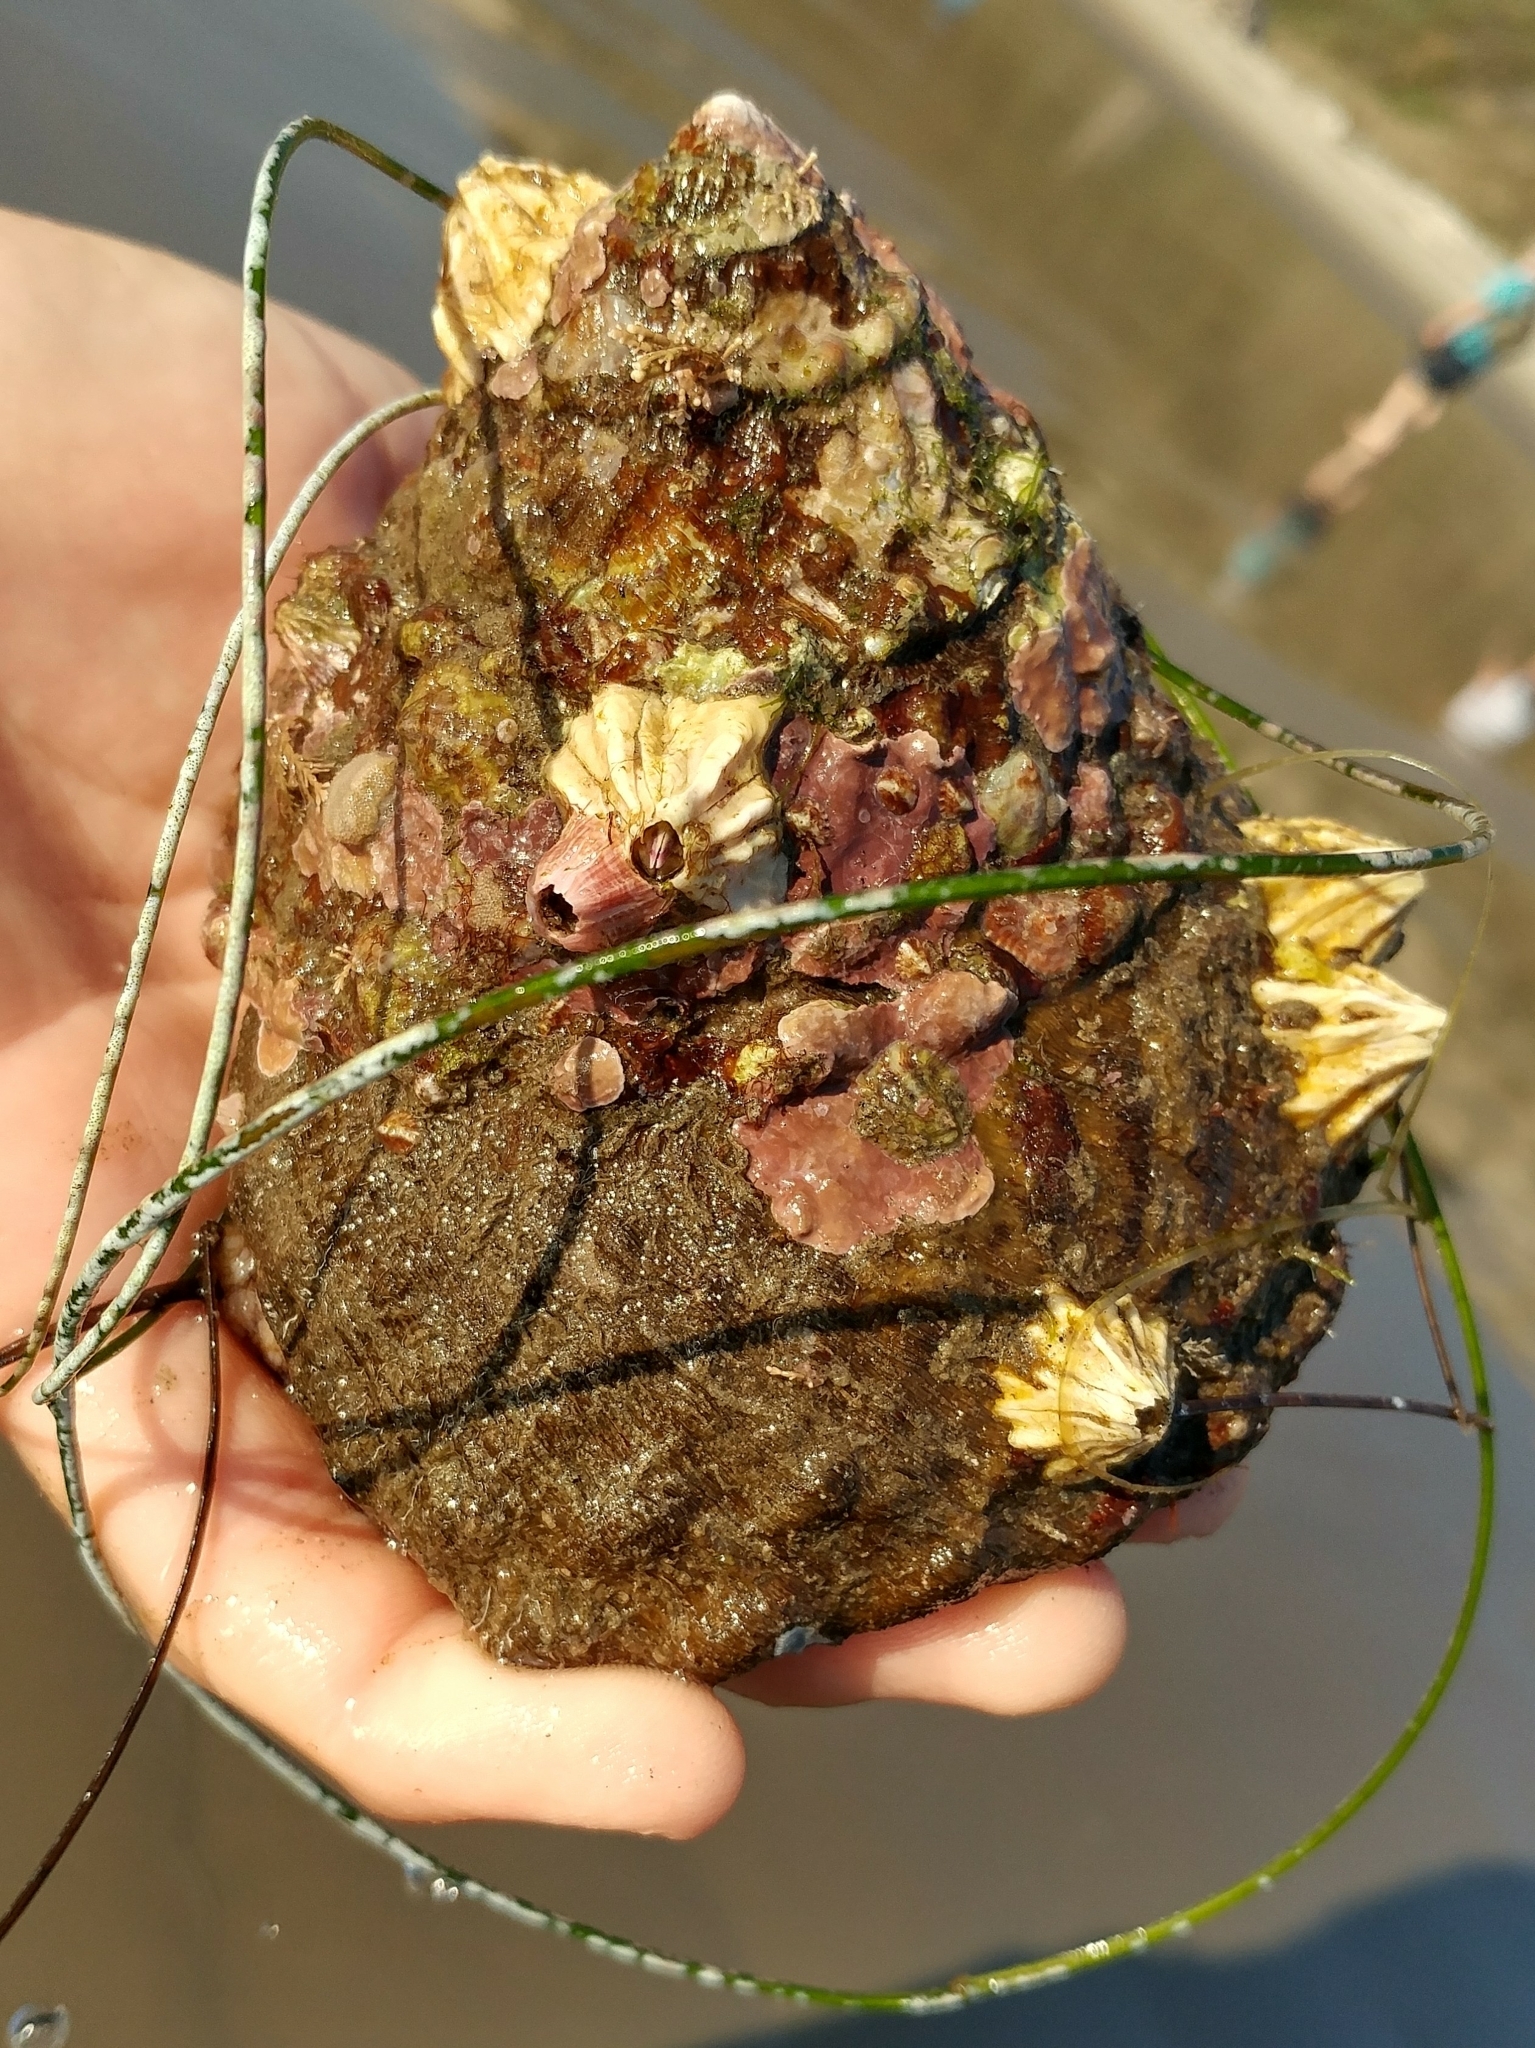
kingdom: Animalia
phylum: Mollusca
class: Gastropoda
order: Trochida
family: Turbinidae
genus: Megastraea
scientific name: Megastraea undosa
